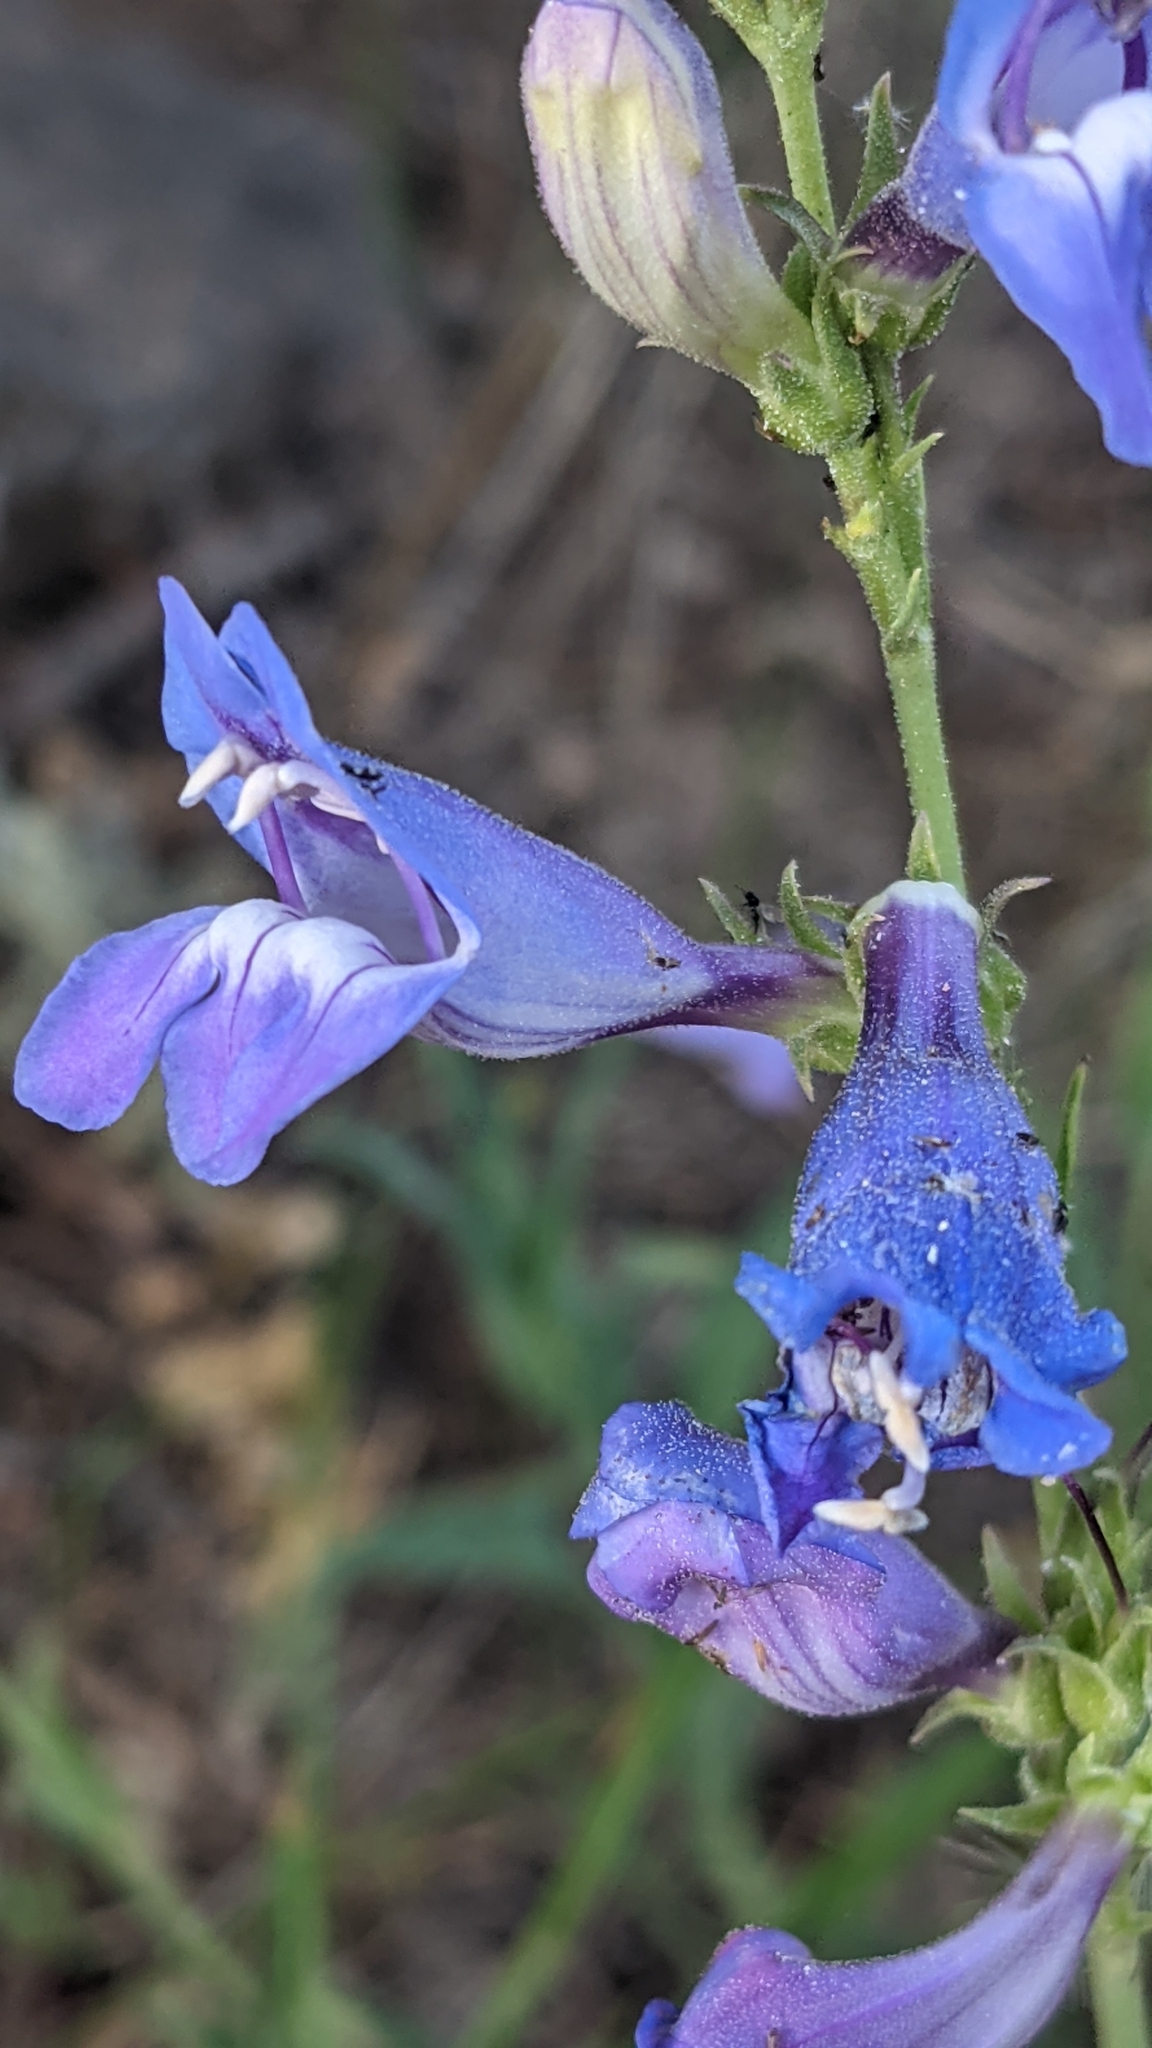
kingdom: Plantae
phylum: Tracheophyta
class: Magnoliopsida
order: Lamiales
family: Plantaginaceae
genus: Penstemon
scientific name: Penstemon leiophyllus
